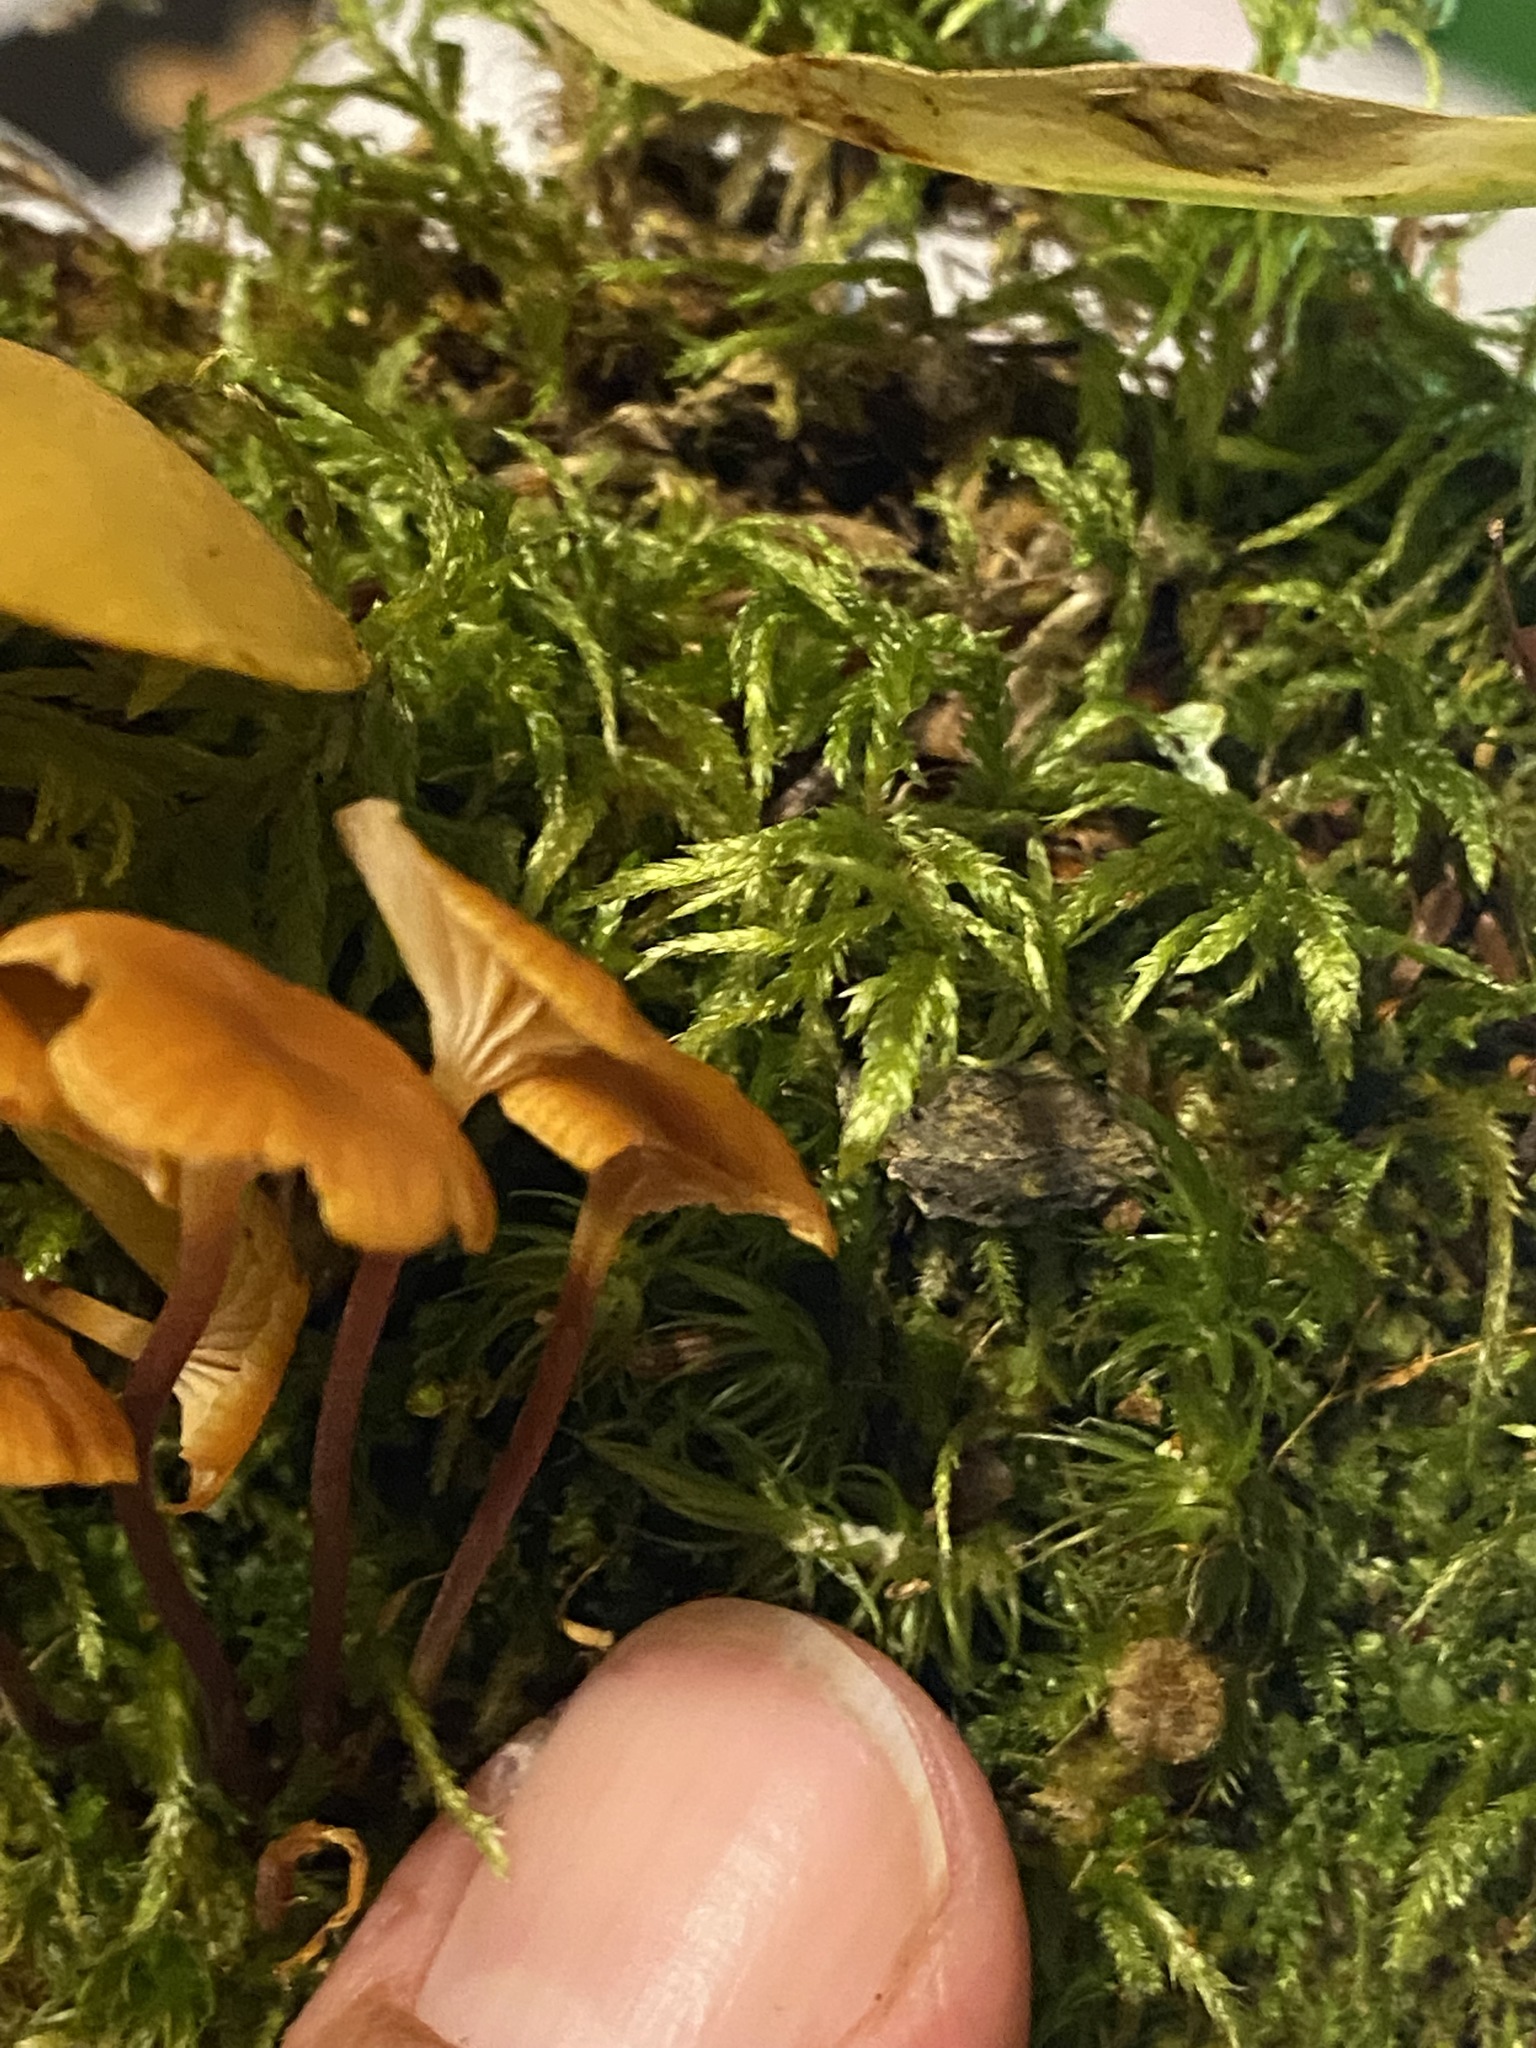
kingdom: Fungi
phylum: Basidiomycota
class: Agaricomycetes
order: Agaricales
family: Mycenaceae
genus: Xeromphalina
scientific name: Xeromphalina campanella
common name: Pinewood gingertail
